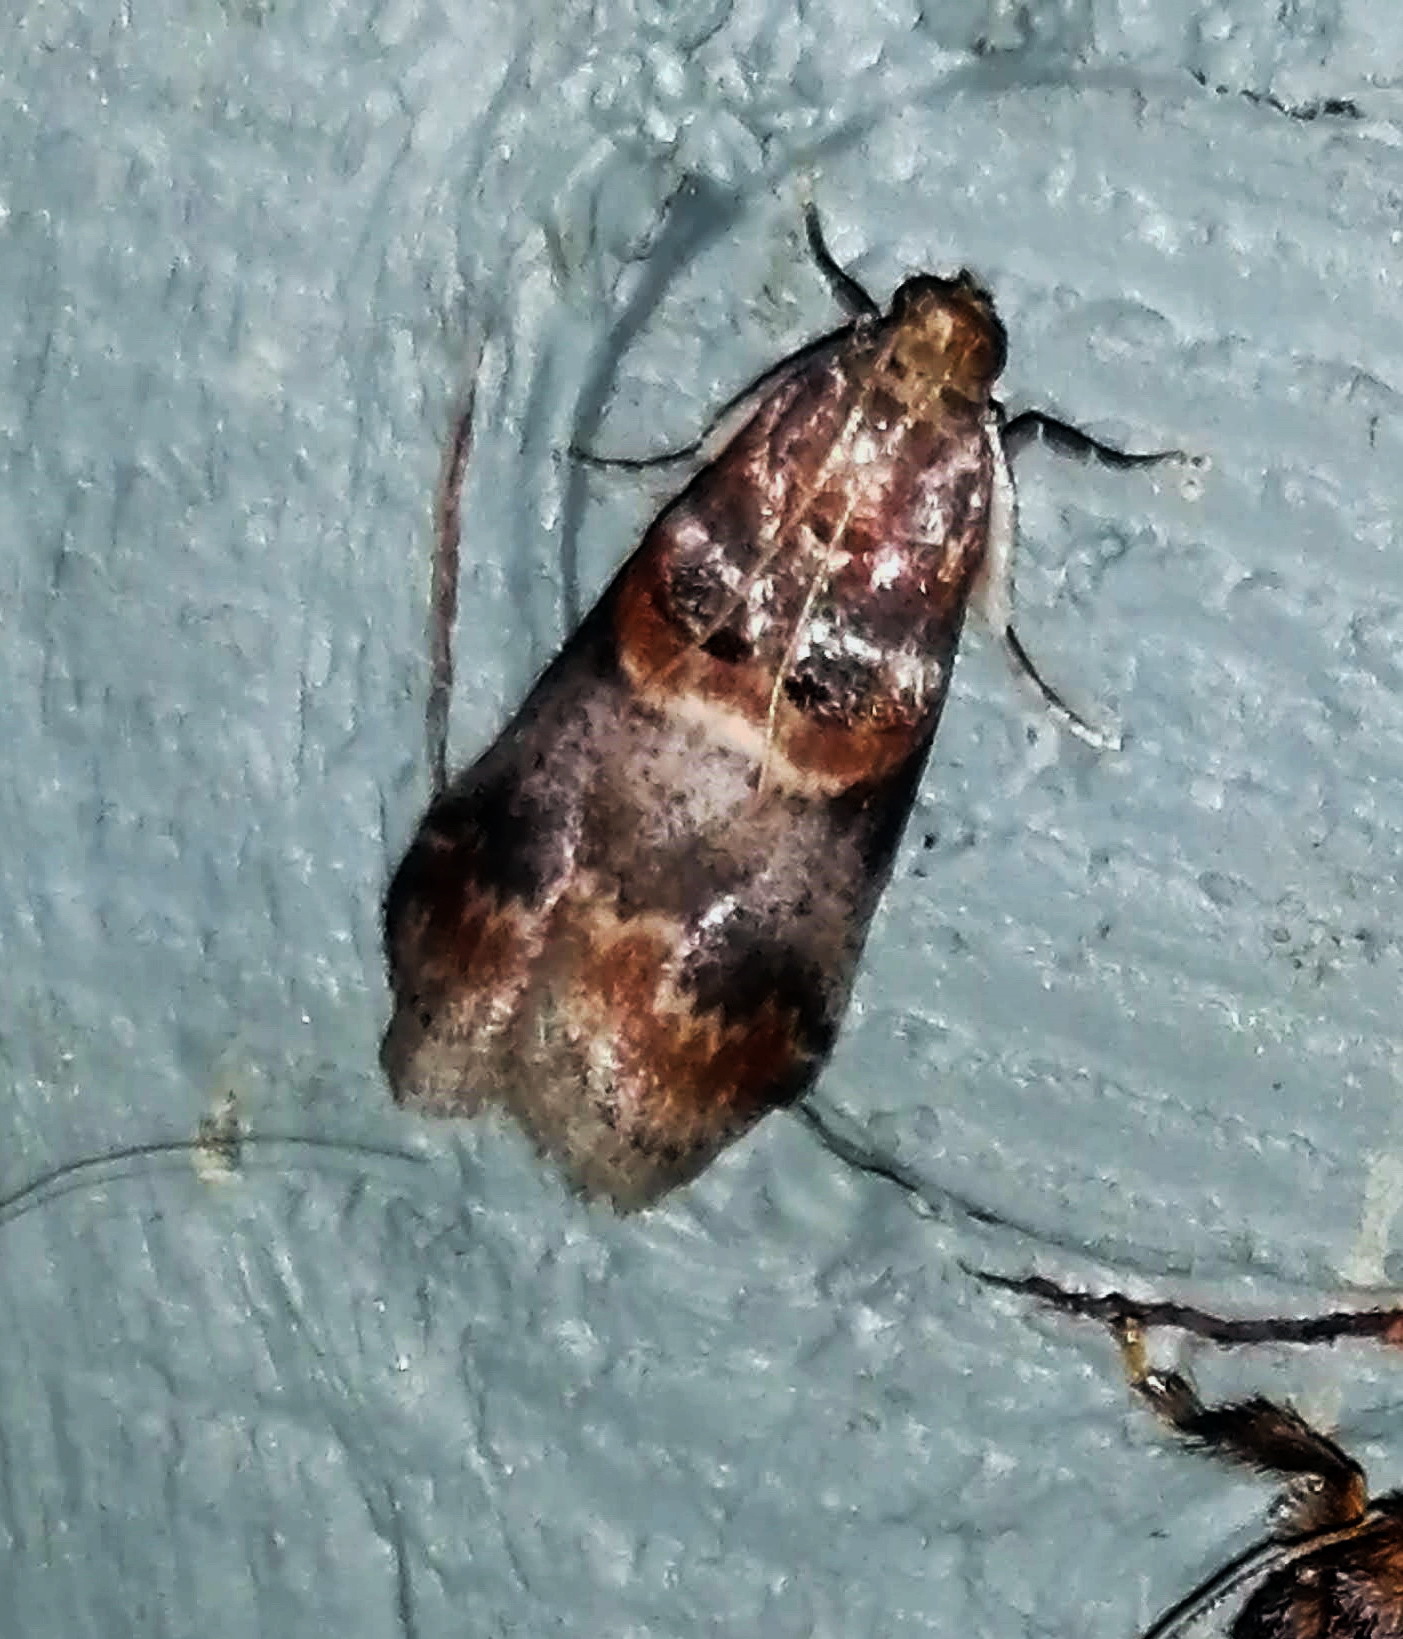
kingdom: Animalia
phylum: Arthropoda
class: Insecta
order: Lepidoptera
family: Pyralidae
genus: Acrobasis
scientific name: Acrobasis angusella
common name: Hickory leafstem borer moth
